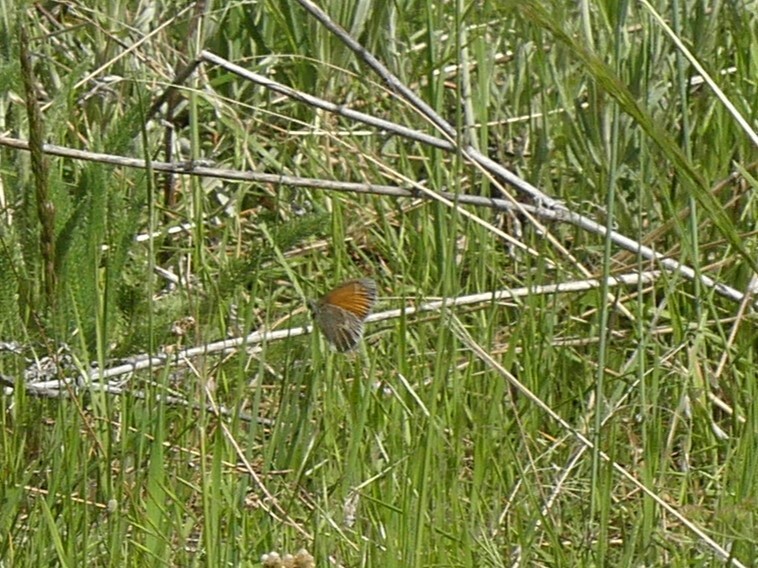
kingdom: Animalia
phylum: Arthropoda
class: Insecta
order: Lepidoptera
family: Nymphalidae
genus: Coenonympha
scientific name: Coenonympha california
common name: Common ringlet
